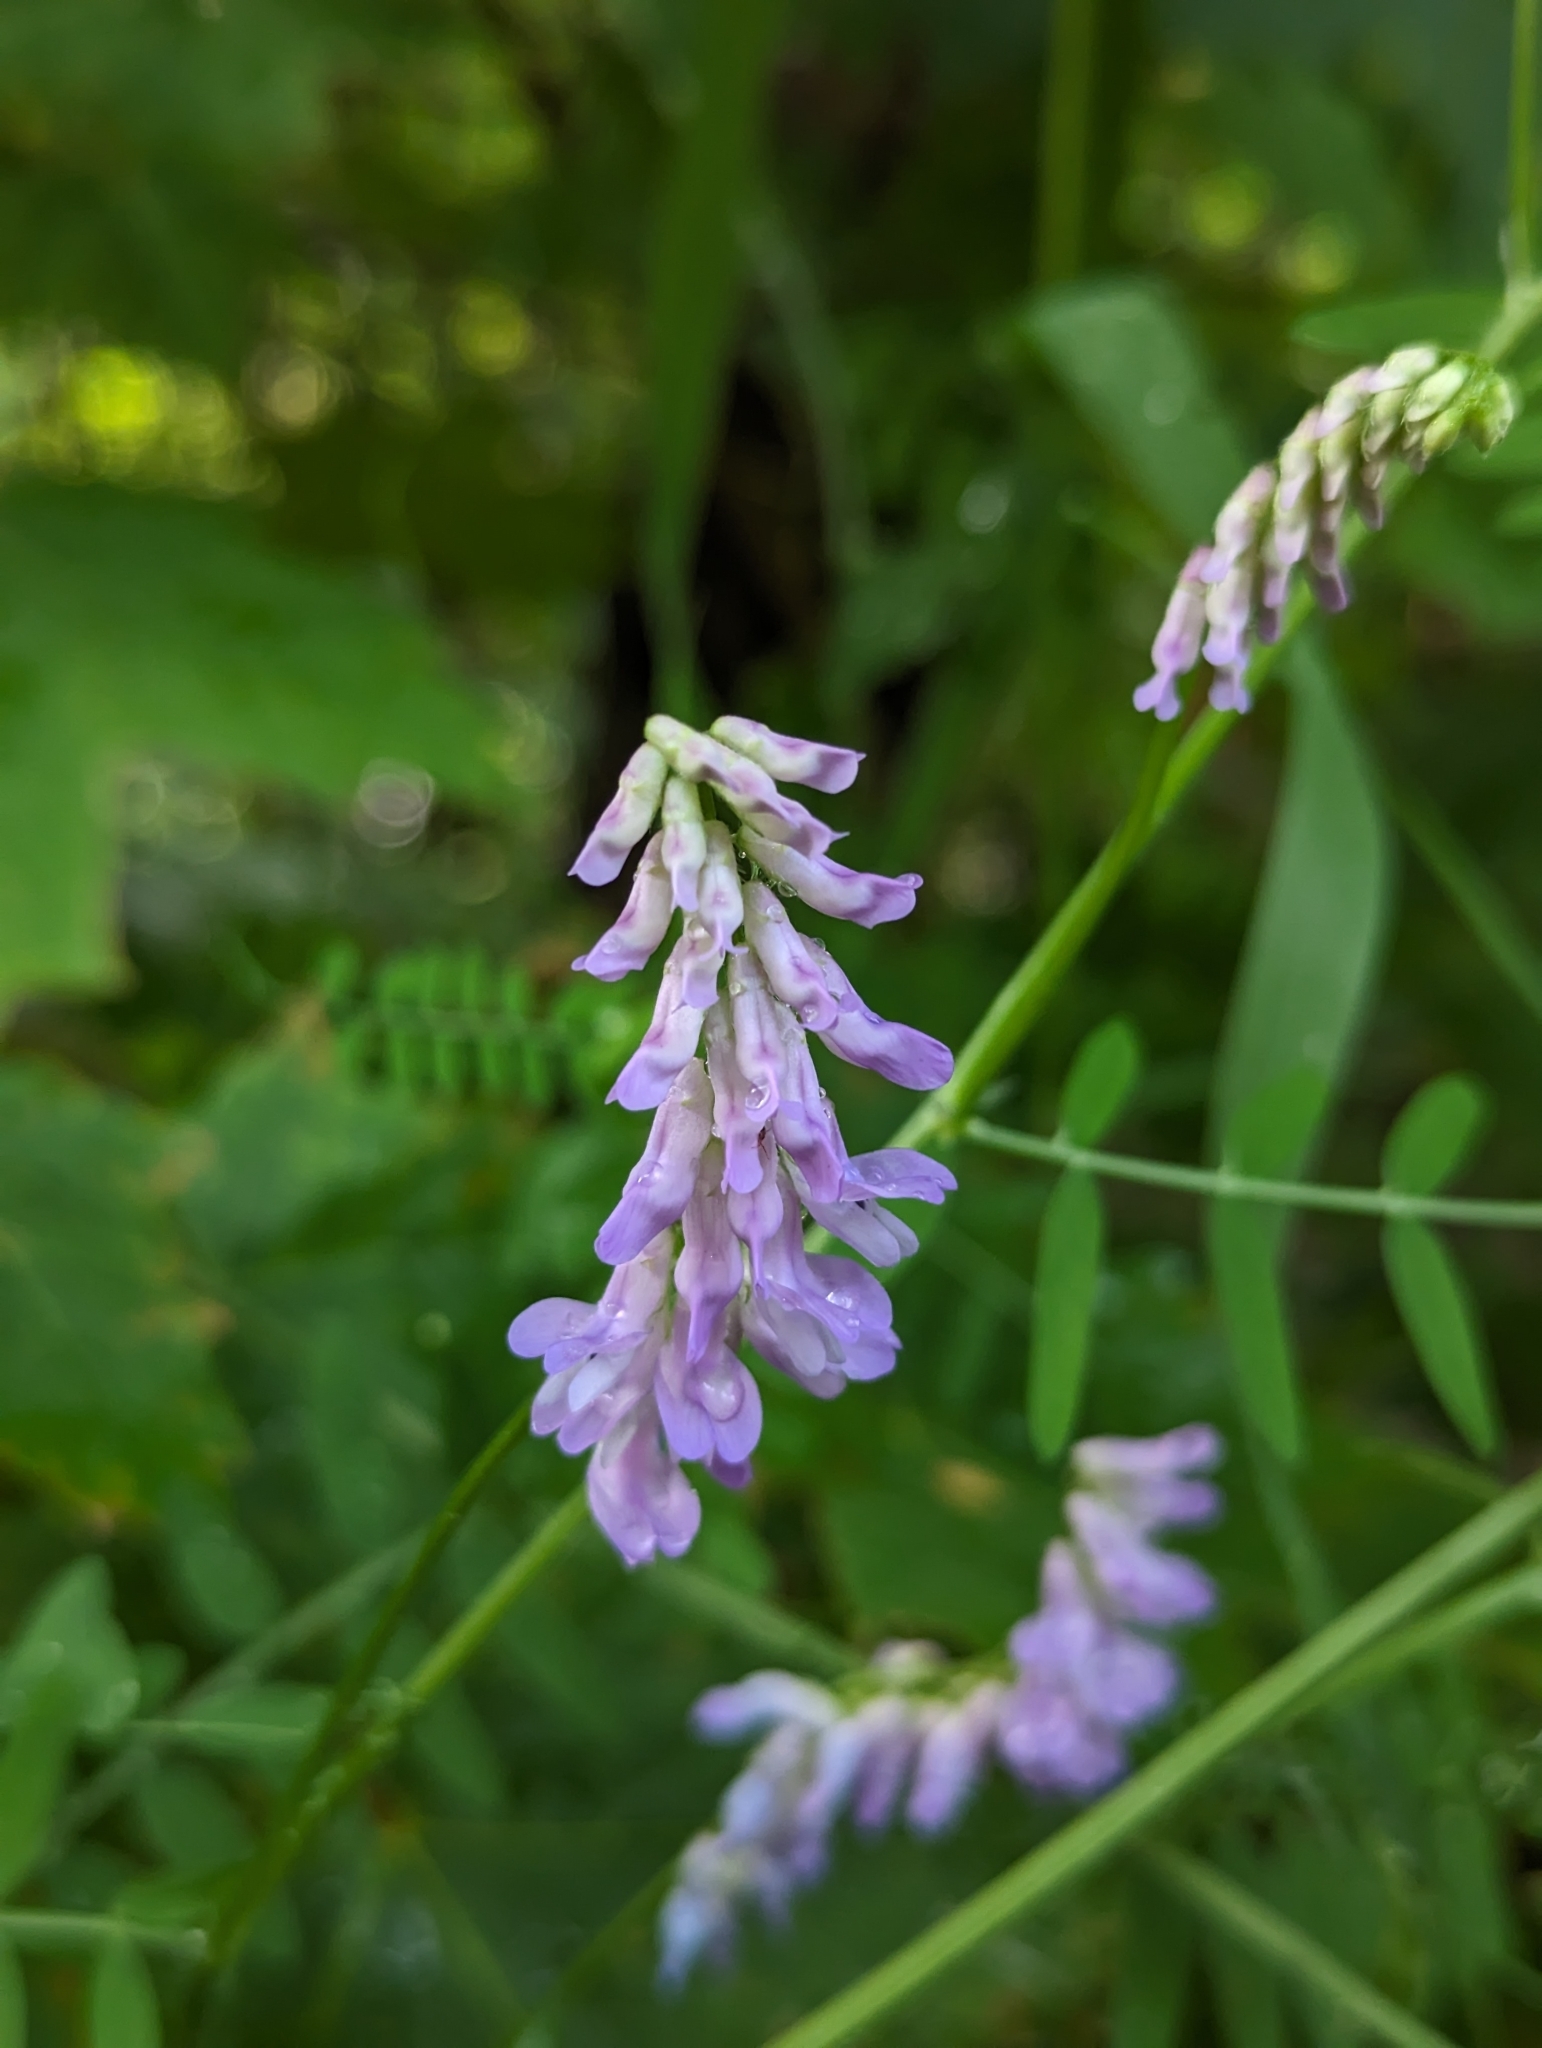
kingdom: Plantae
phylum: Tracheophyta
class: Magnoliopsida
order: Fabales
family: Fabaceae
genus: Vicia
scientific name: Vicia cracca
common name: Bird vetch
